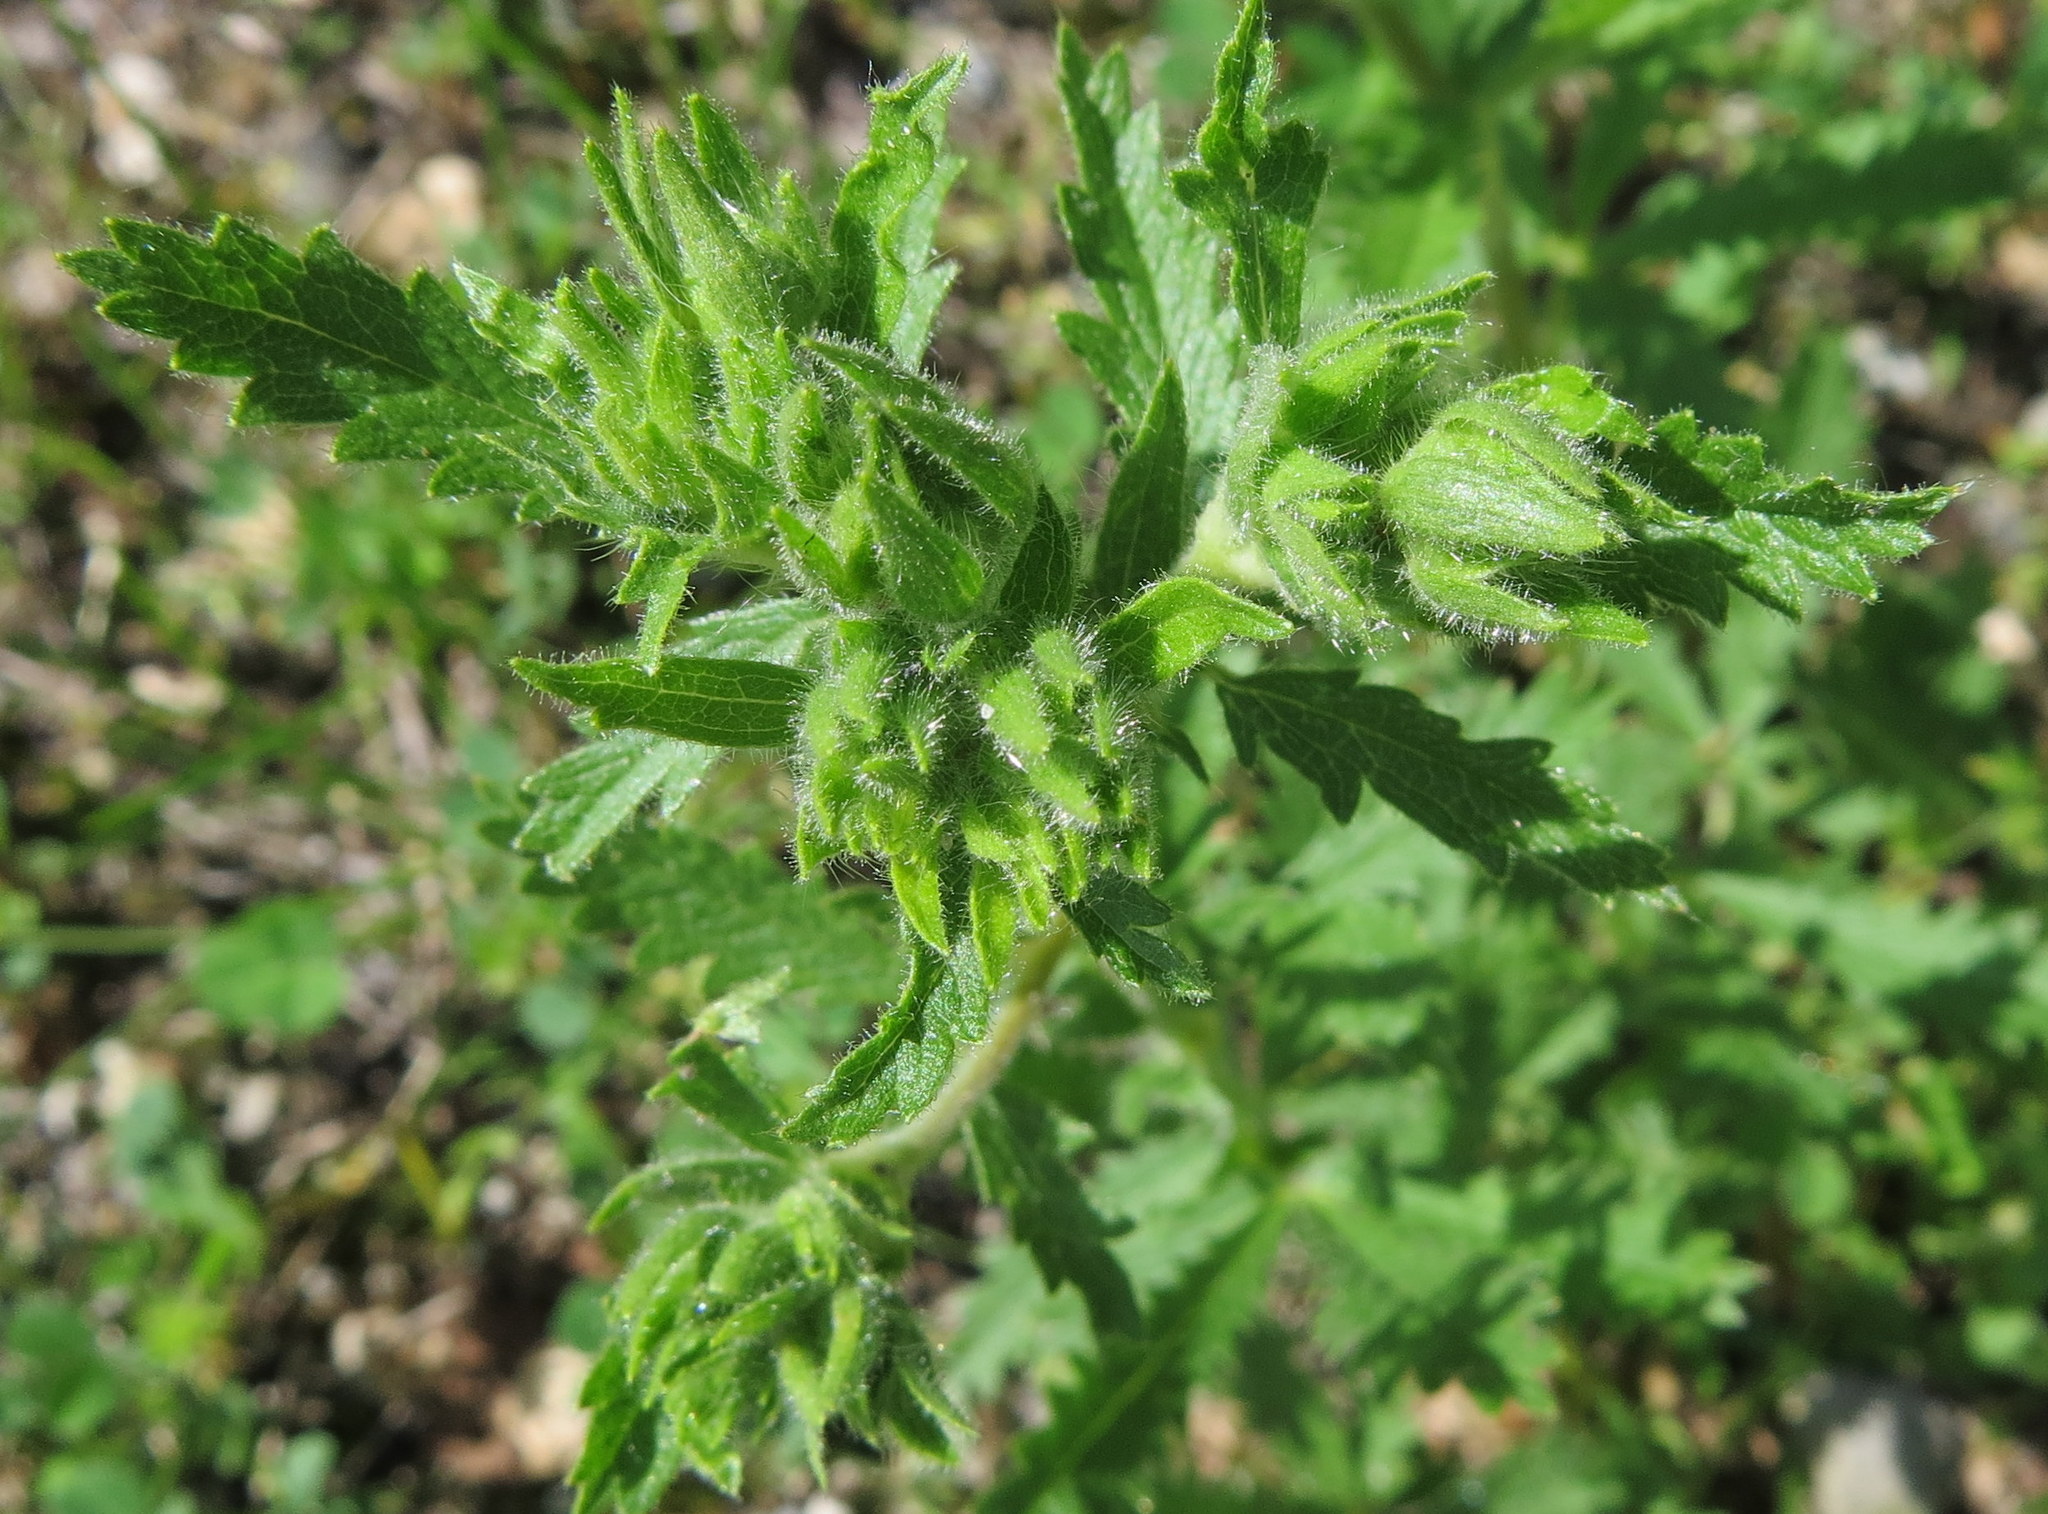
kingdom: Plantae
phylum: Tracheophyta
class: Magnoliopsida
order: Rosales
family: Rosaceae
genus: Potentilla
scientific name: Potentilla recta
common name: Sulphur cinquefoil
